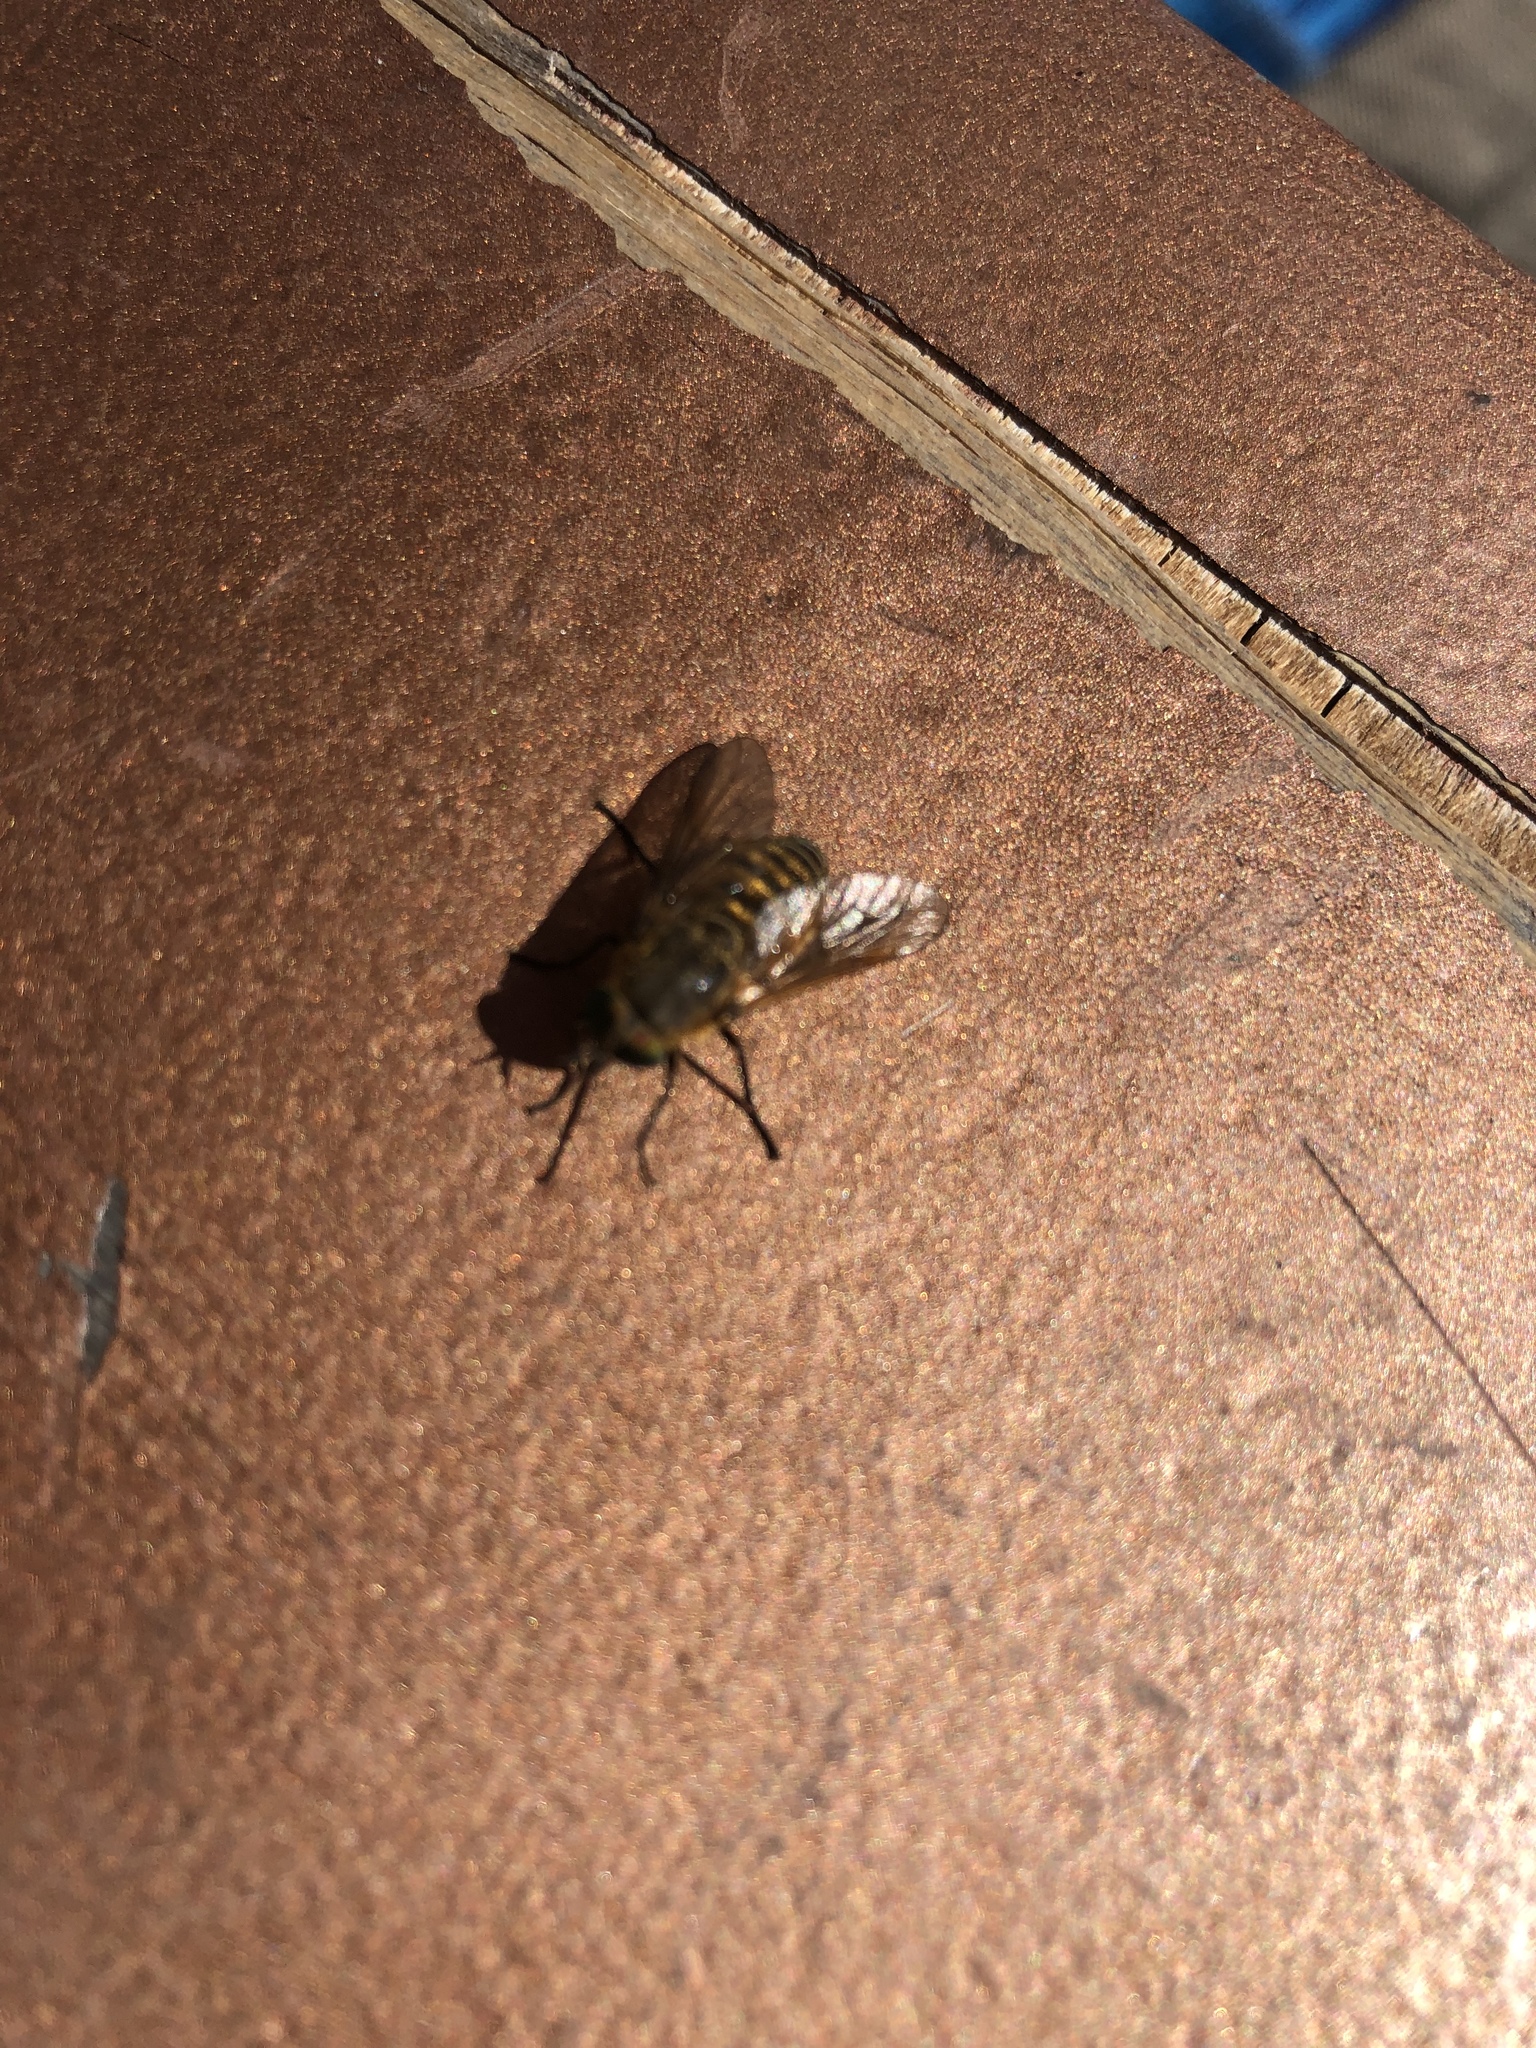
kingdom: Animalia
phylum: Arthropoda
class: Insecta
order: Diptera
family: Tabanidae
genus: Stonemyia
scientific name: Stonemyia tranquilla
